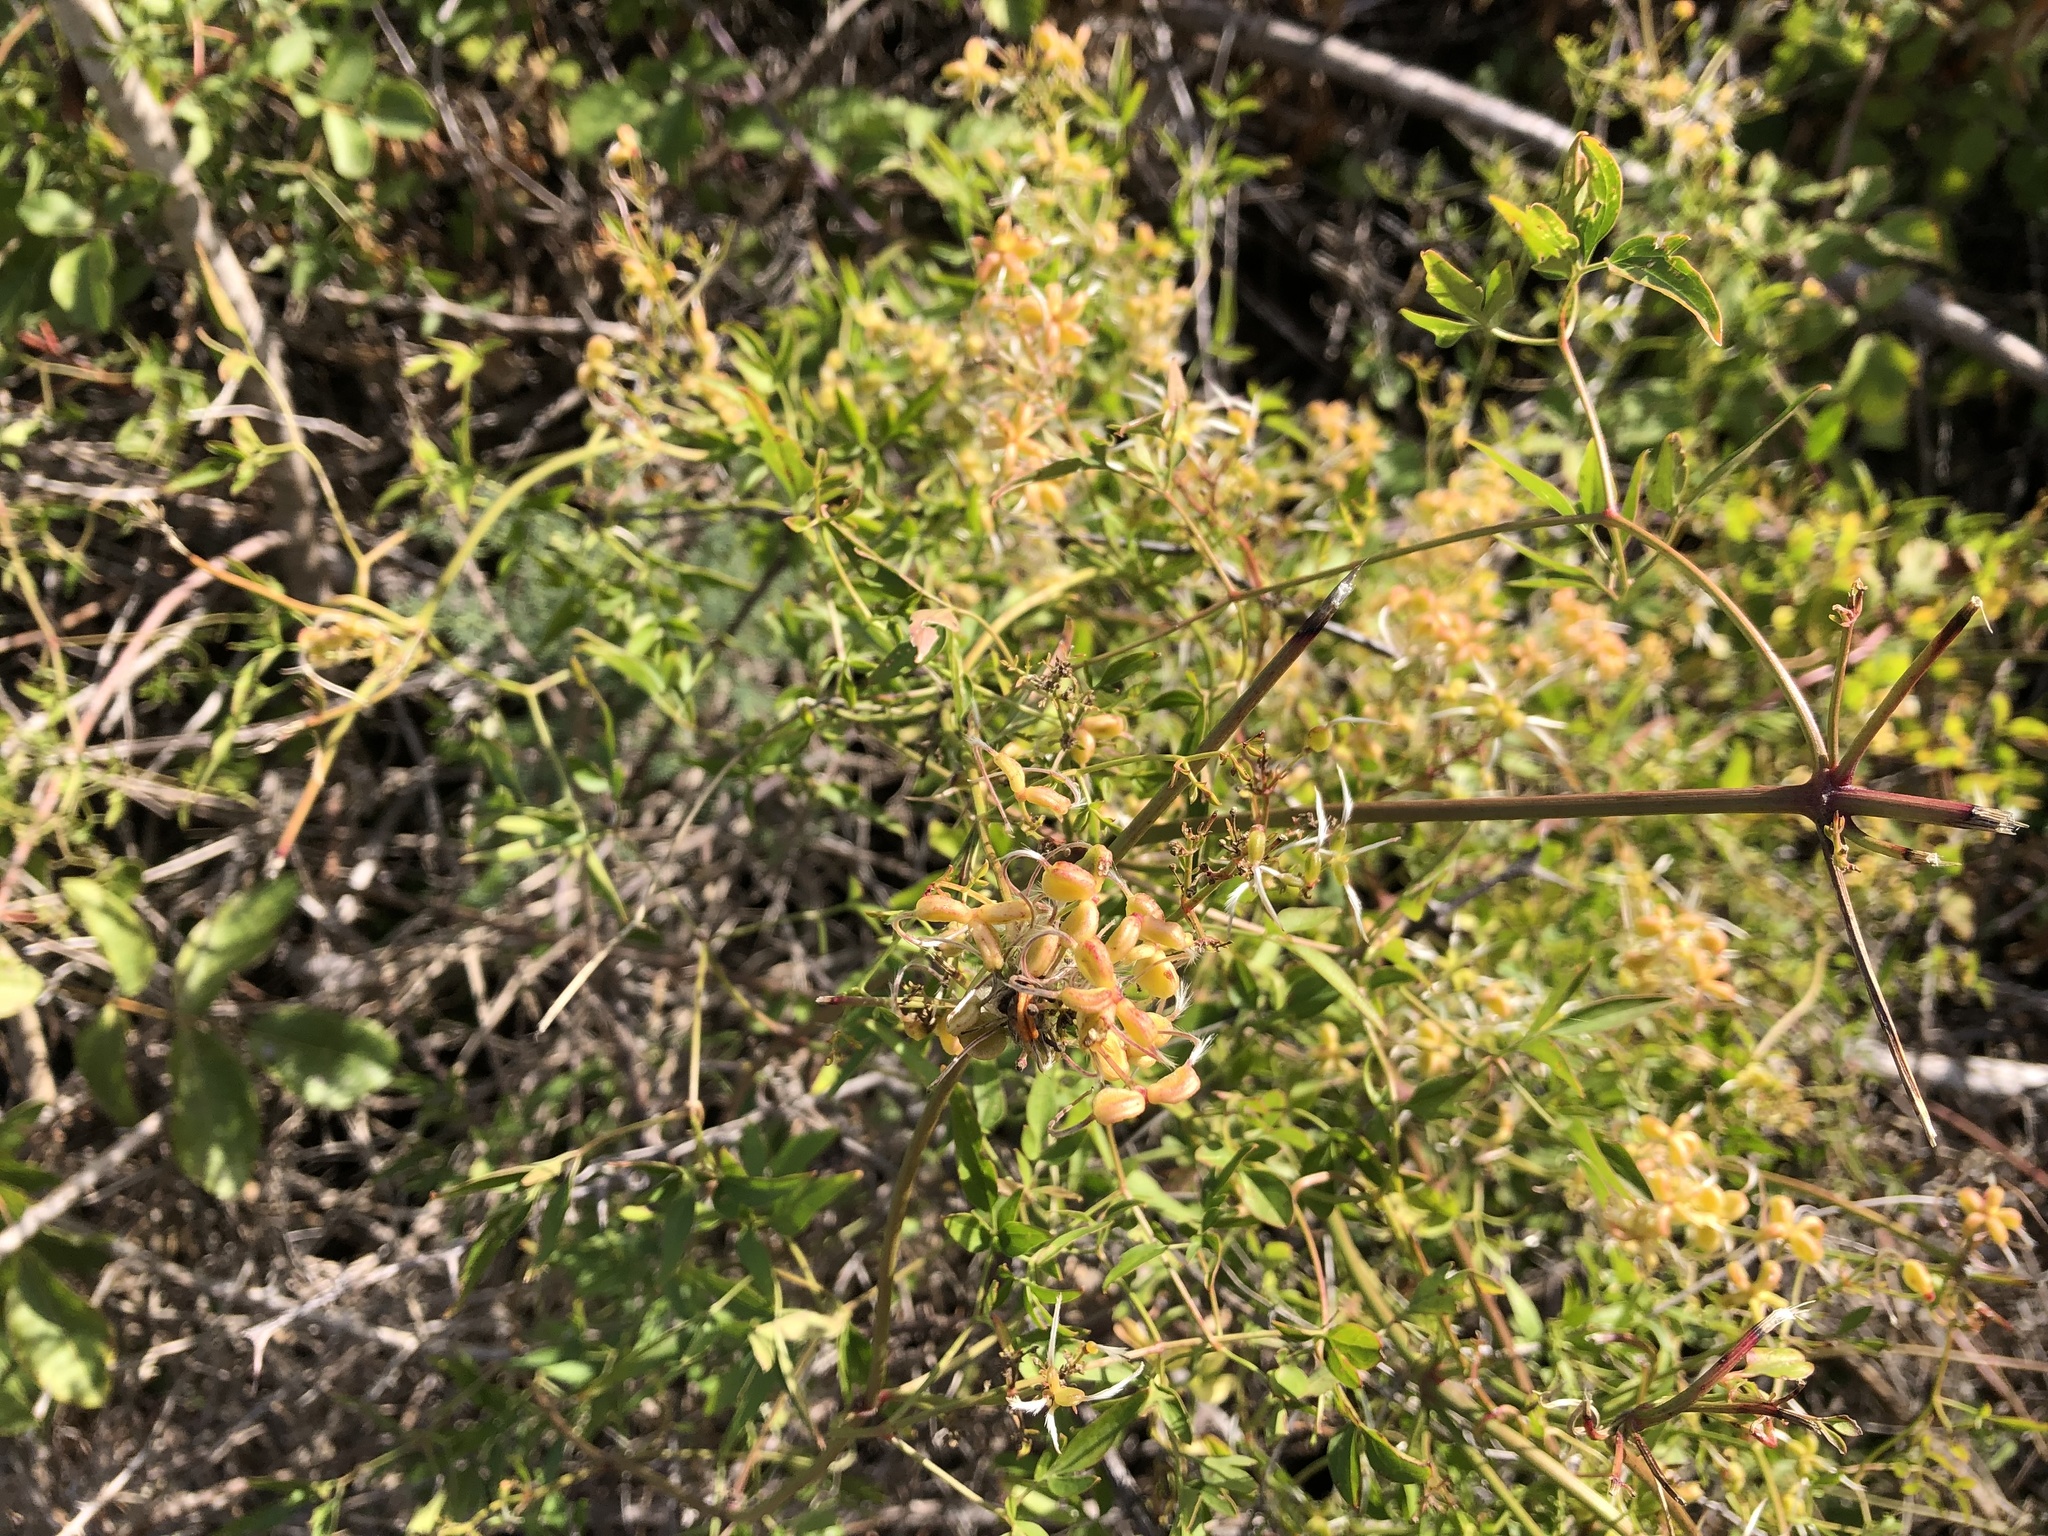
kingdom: Plantae
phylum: Tracheophyta
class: Magnoliopsida
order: Ranunculales
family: Ranunculaceae
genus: Clematis
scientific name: Clematis flammula
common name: Virgin's-bower
